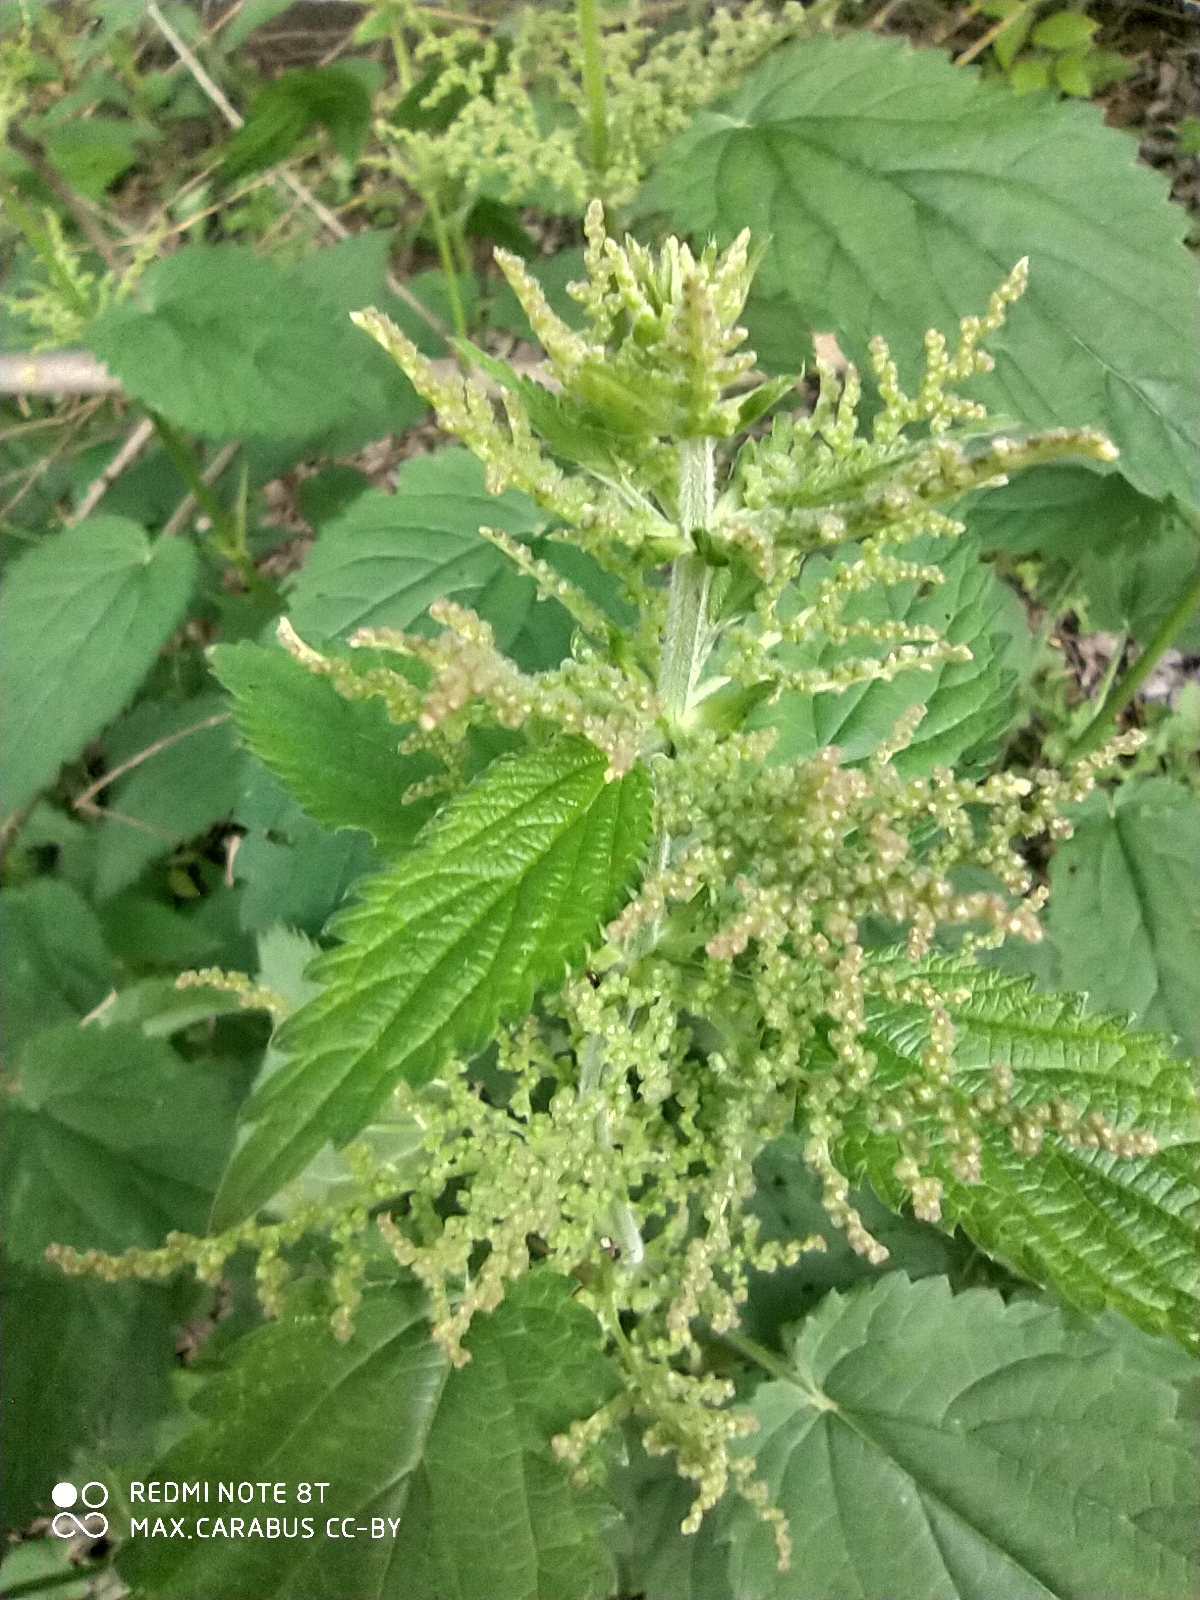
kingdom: Plantae
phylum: Tracheophyta
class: Magnoliopsida
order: Rosales
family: Urticaceae
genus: Urtica
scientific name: Urtica dioica
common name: Common nettle
